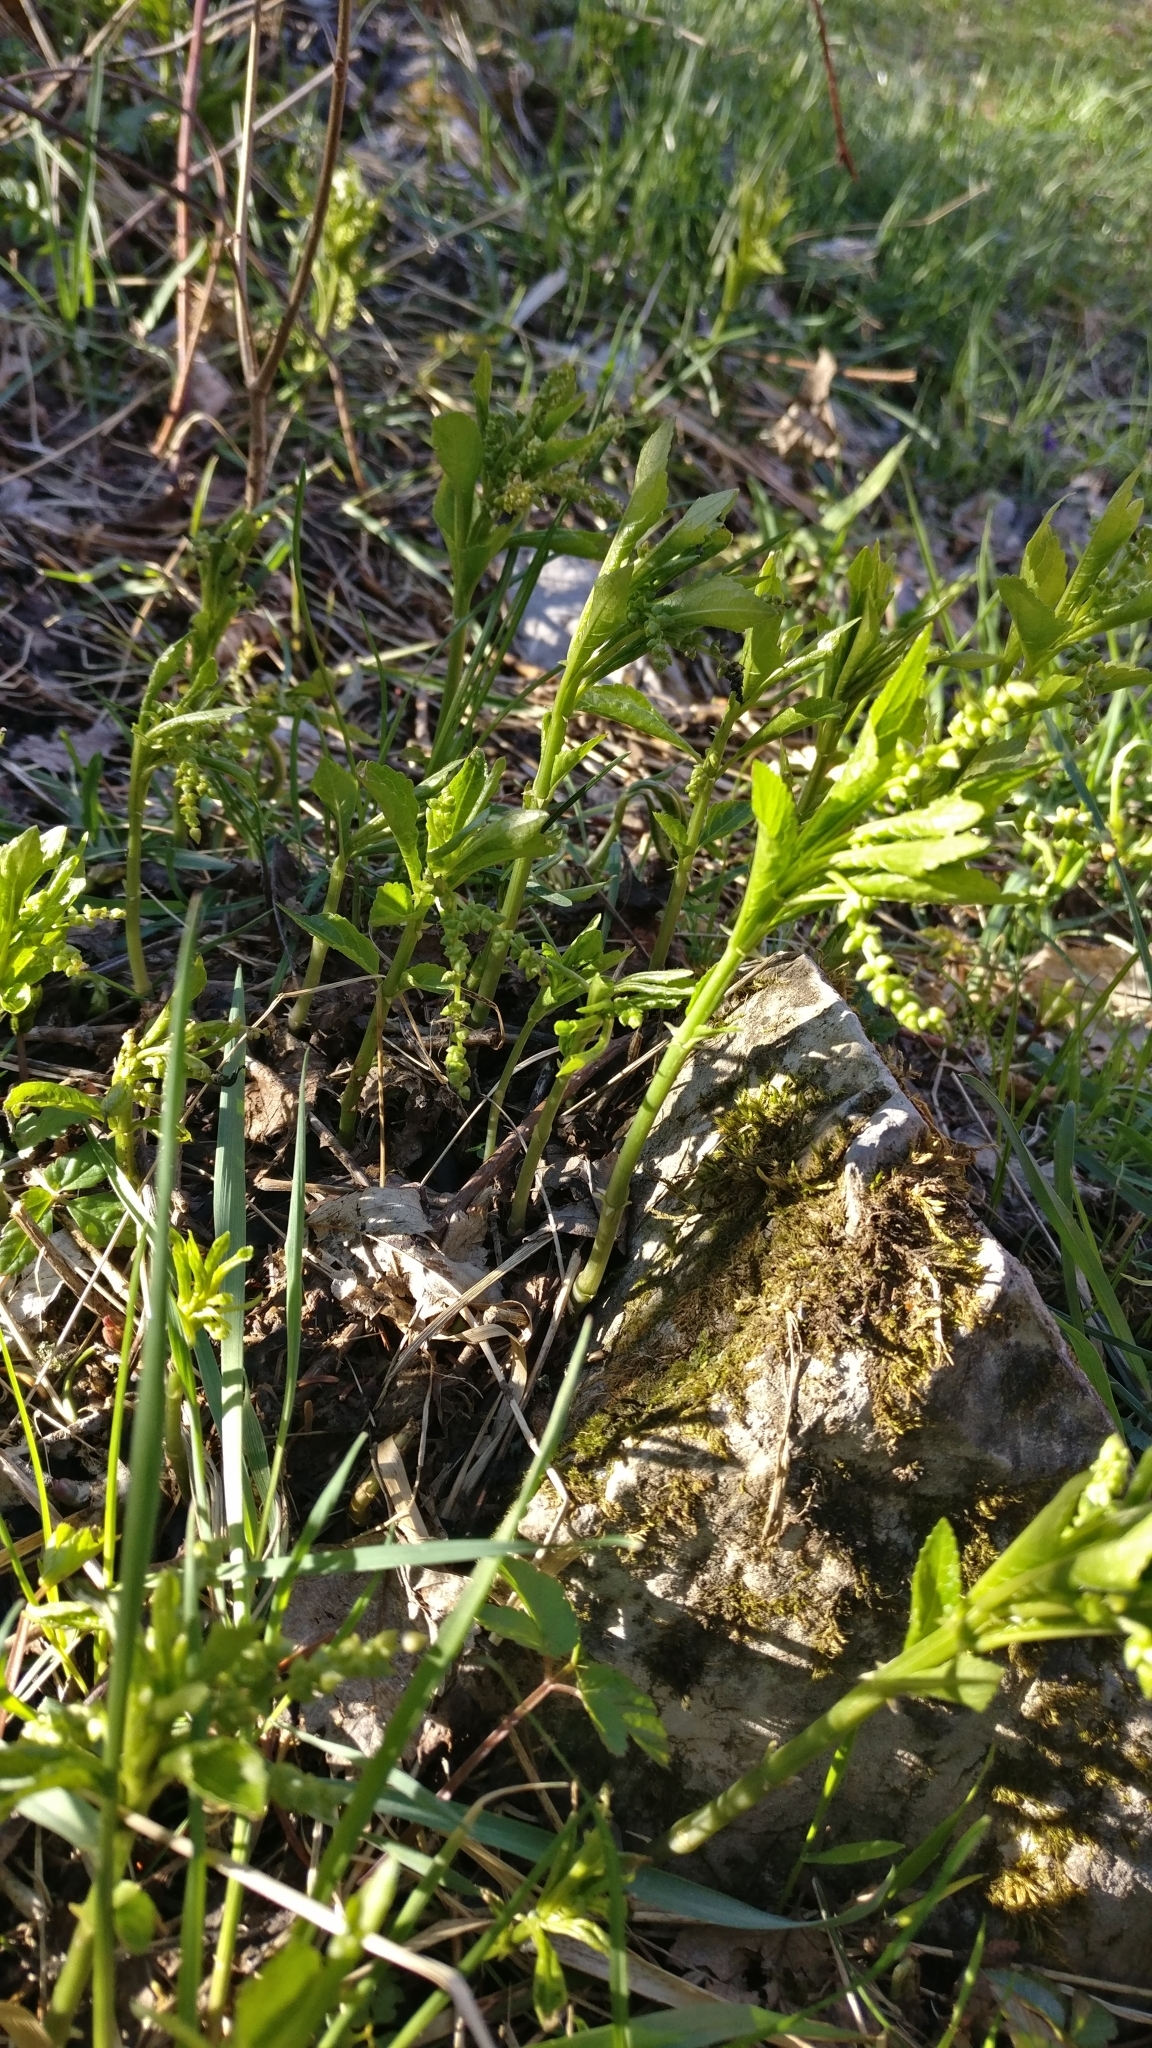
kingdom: Plantae
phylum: Tracheophyta
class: Magnoliopsida
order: Malpighiales
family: Euphorbiaceae
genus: Mercurialis
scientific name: Mercurialis perennis
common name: Dog mercury
